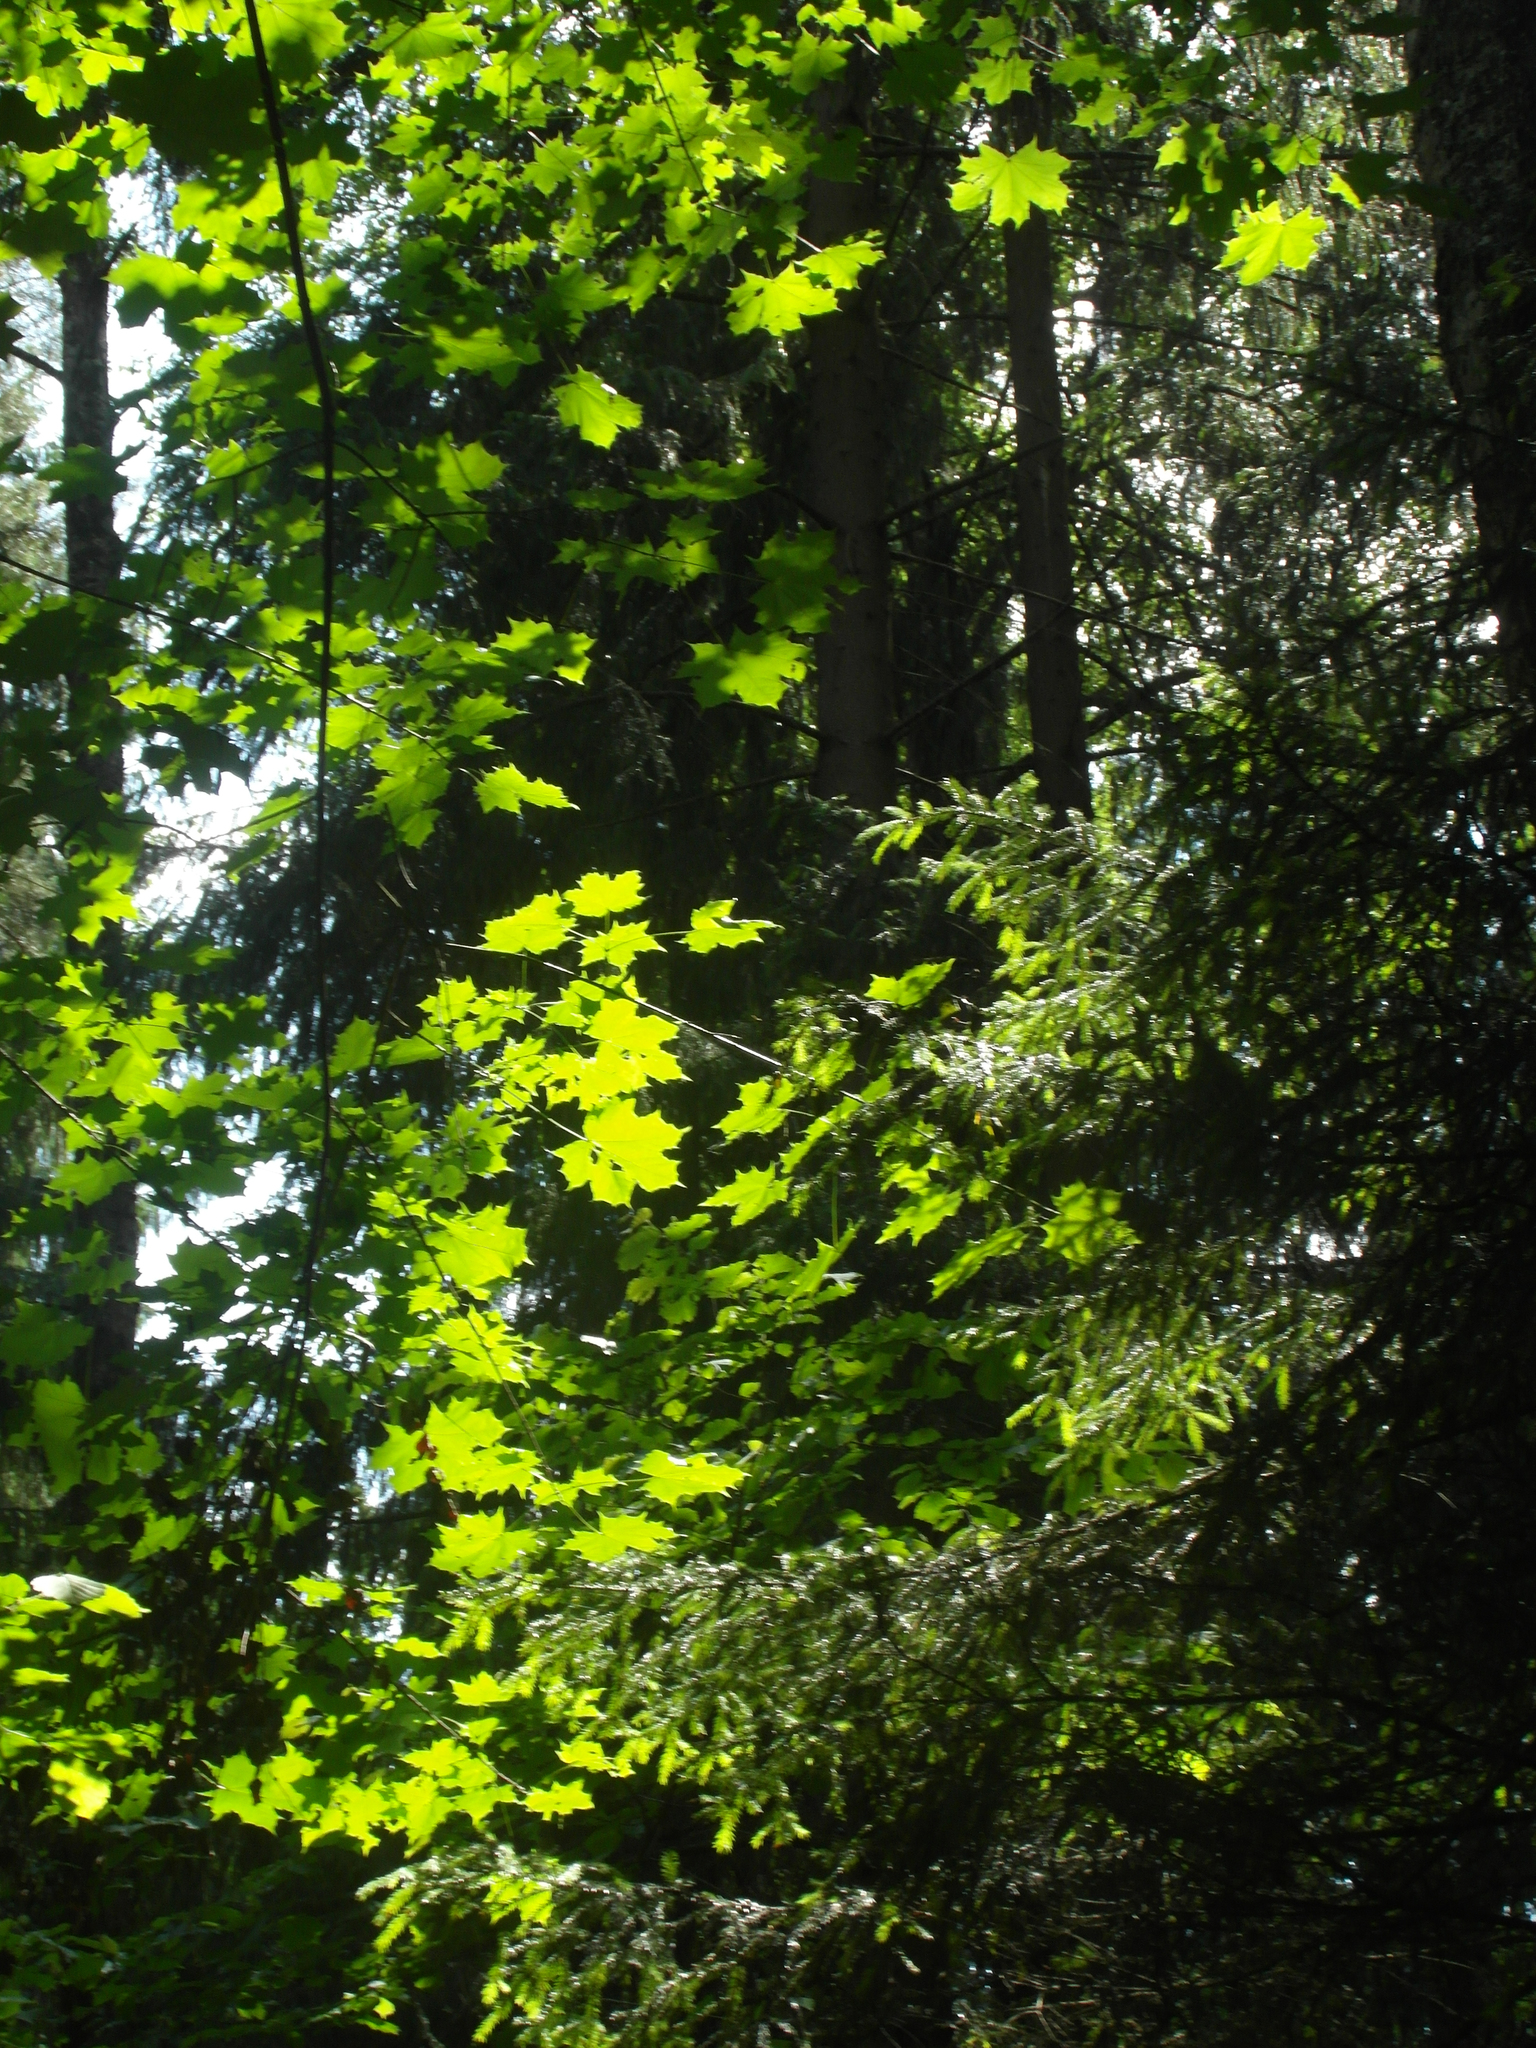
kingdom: Plantae
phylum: Tracheophyta
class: Magnoliopsida
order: Sapindales
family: Sapindaceae
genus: Acer
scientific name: Acer platanoides
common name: Norway maple
